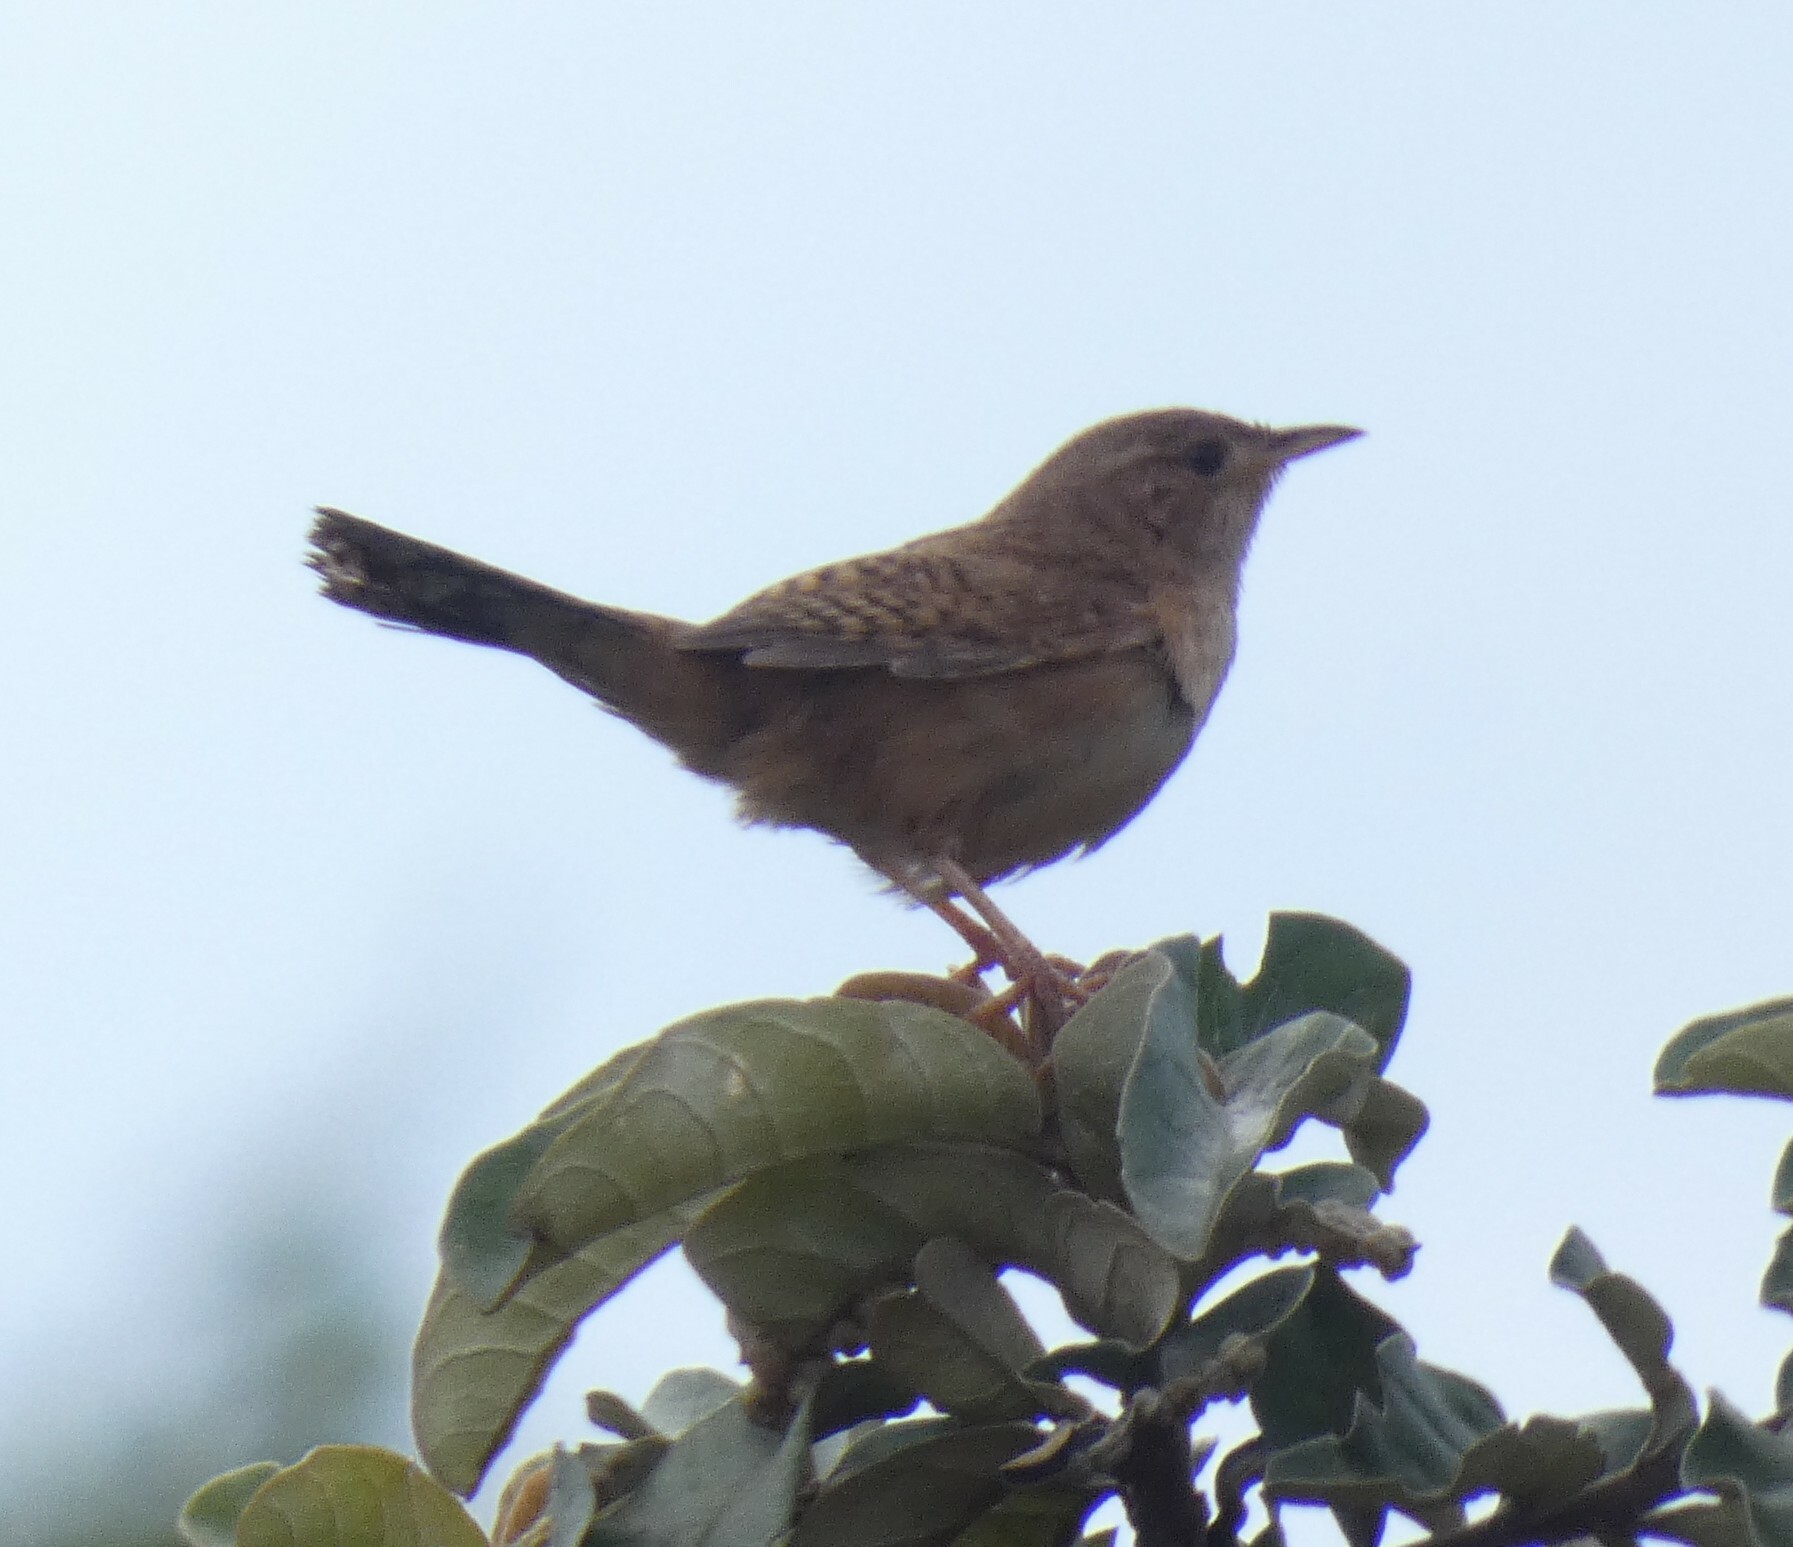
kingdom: Animalia
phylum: Chordata
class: Aves
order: Passeriformes
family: Troglodytidae
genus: Cistothorus
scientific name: Cistothorus platensis
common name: Sedge wren
